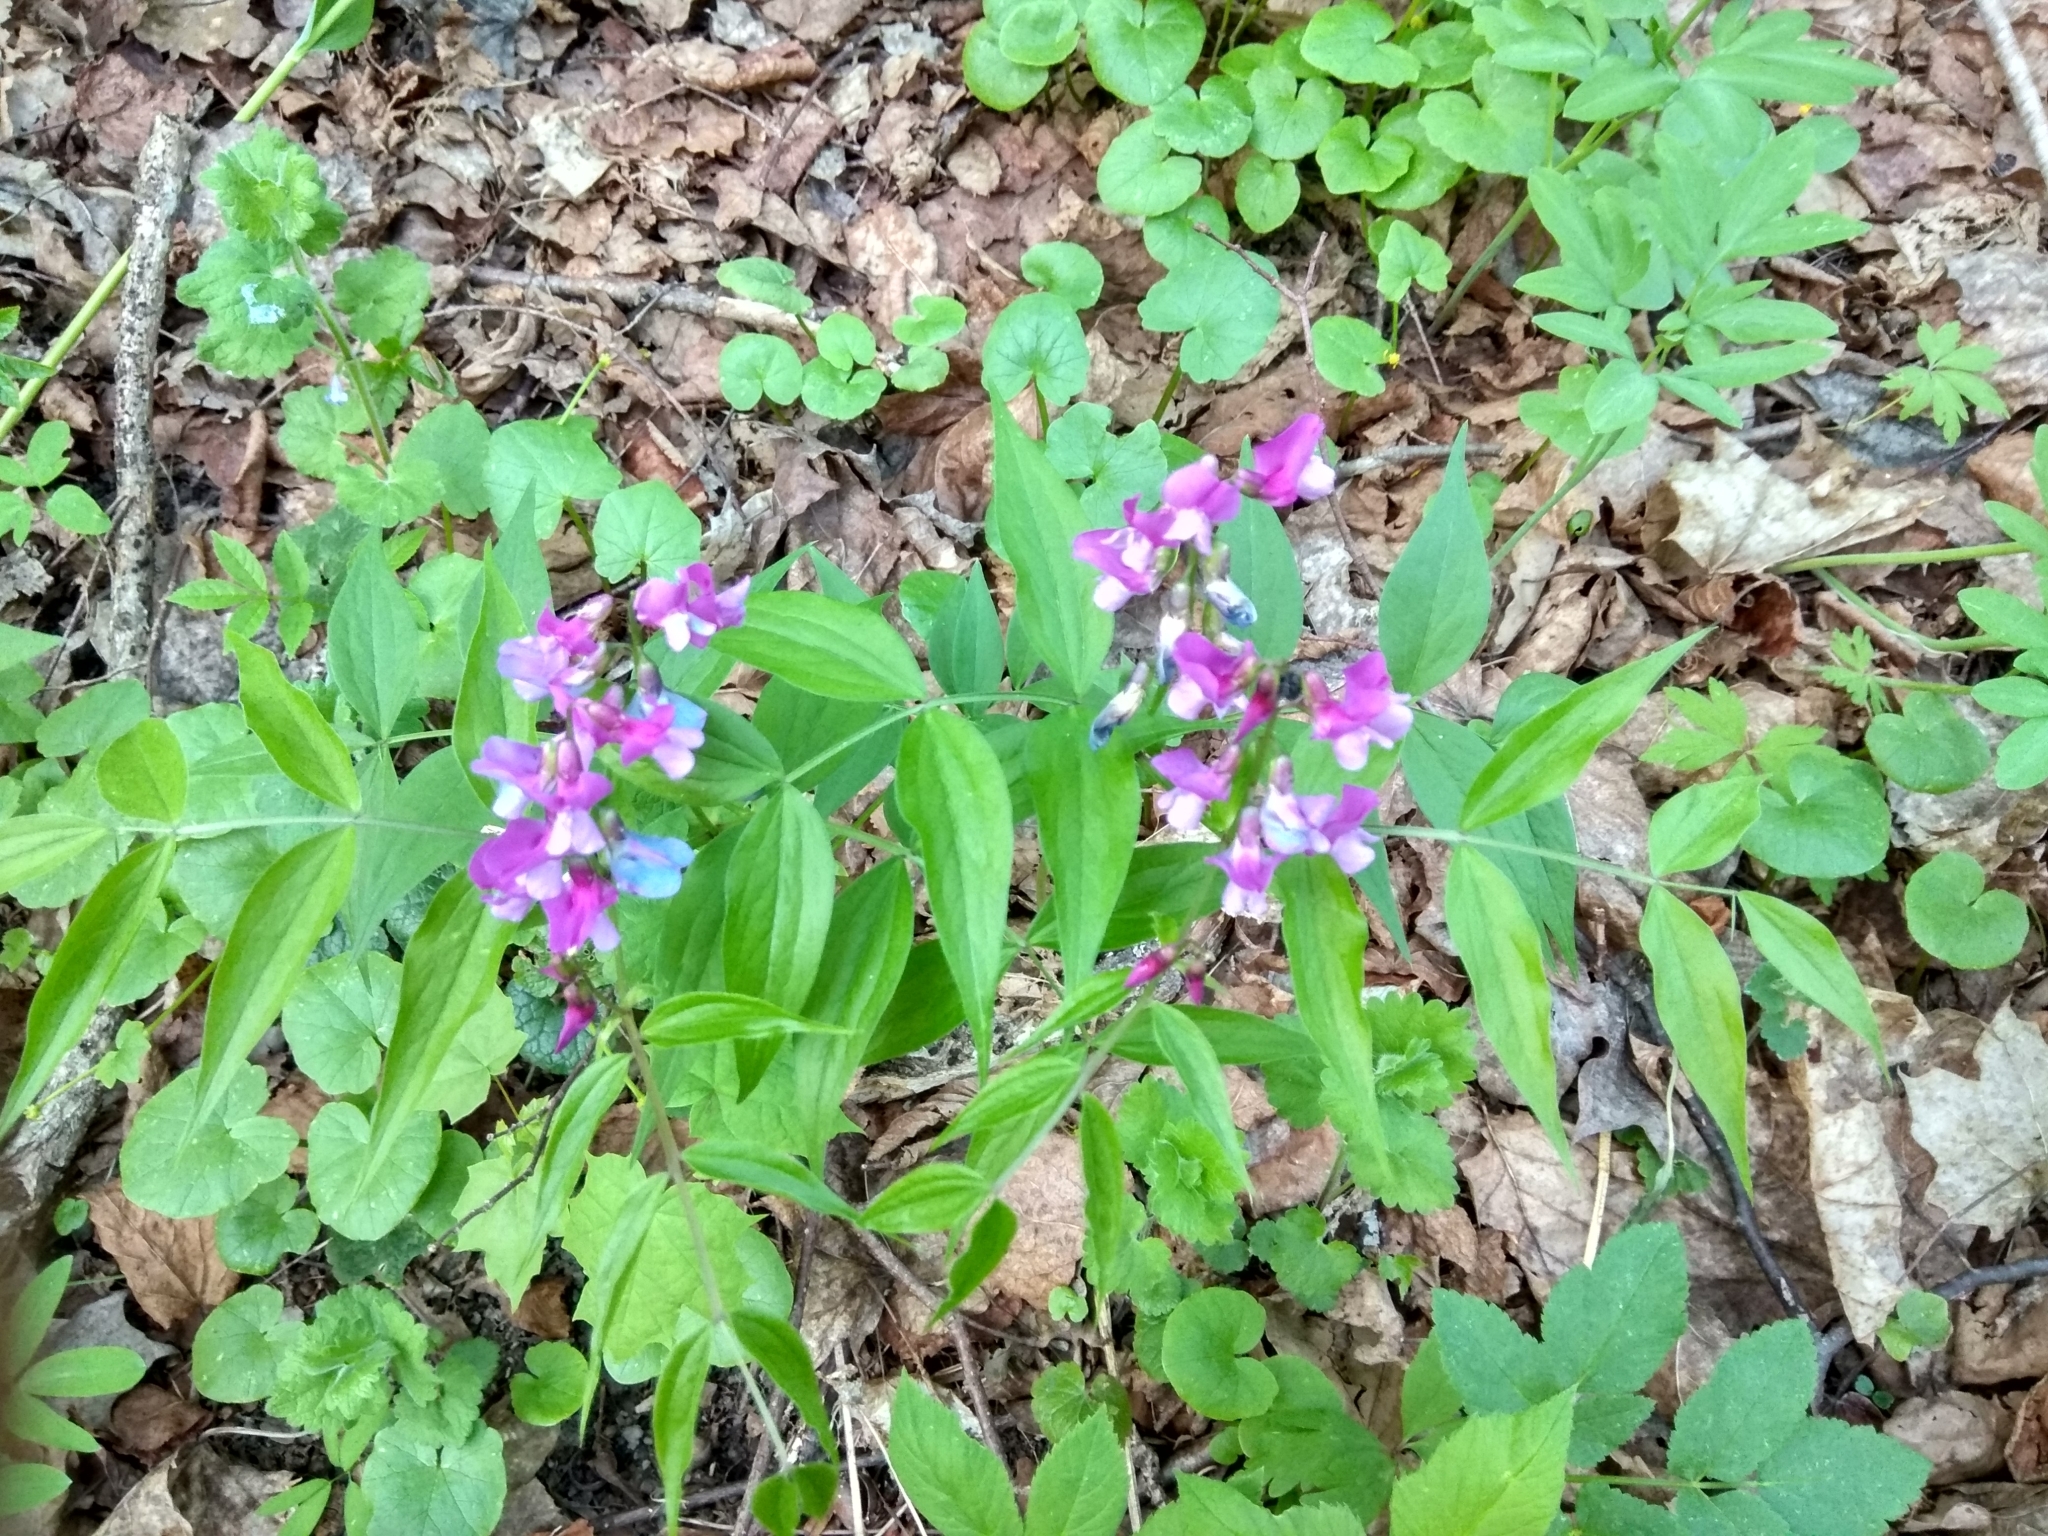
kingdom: Plantae
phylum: Tracheophyta
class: Magnoliopsida
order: Fabales
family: Fabaceae
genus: Lathyrus
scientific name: Lathyrus vernus
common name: Spring pea
